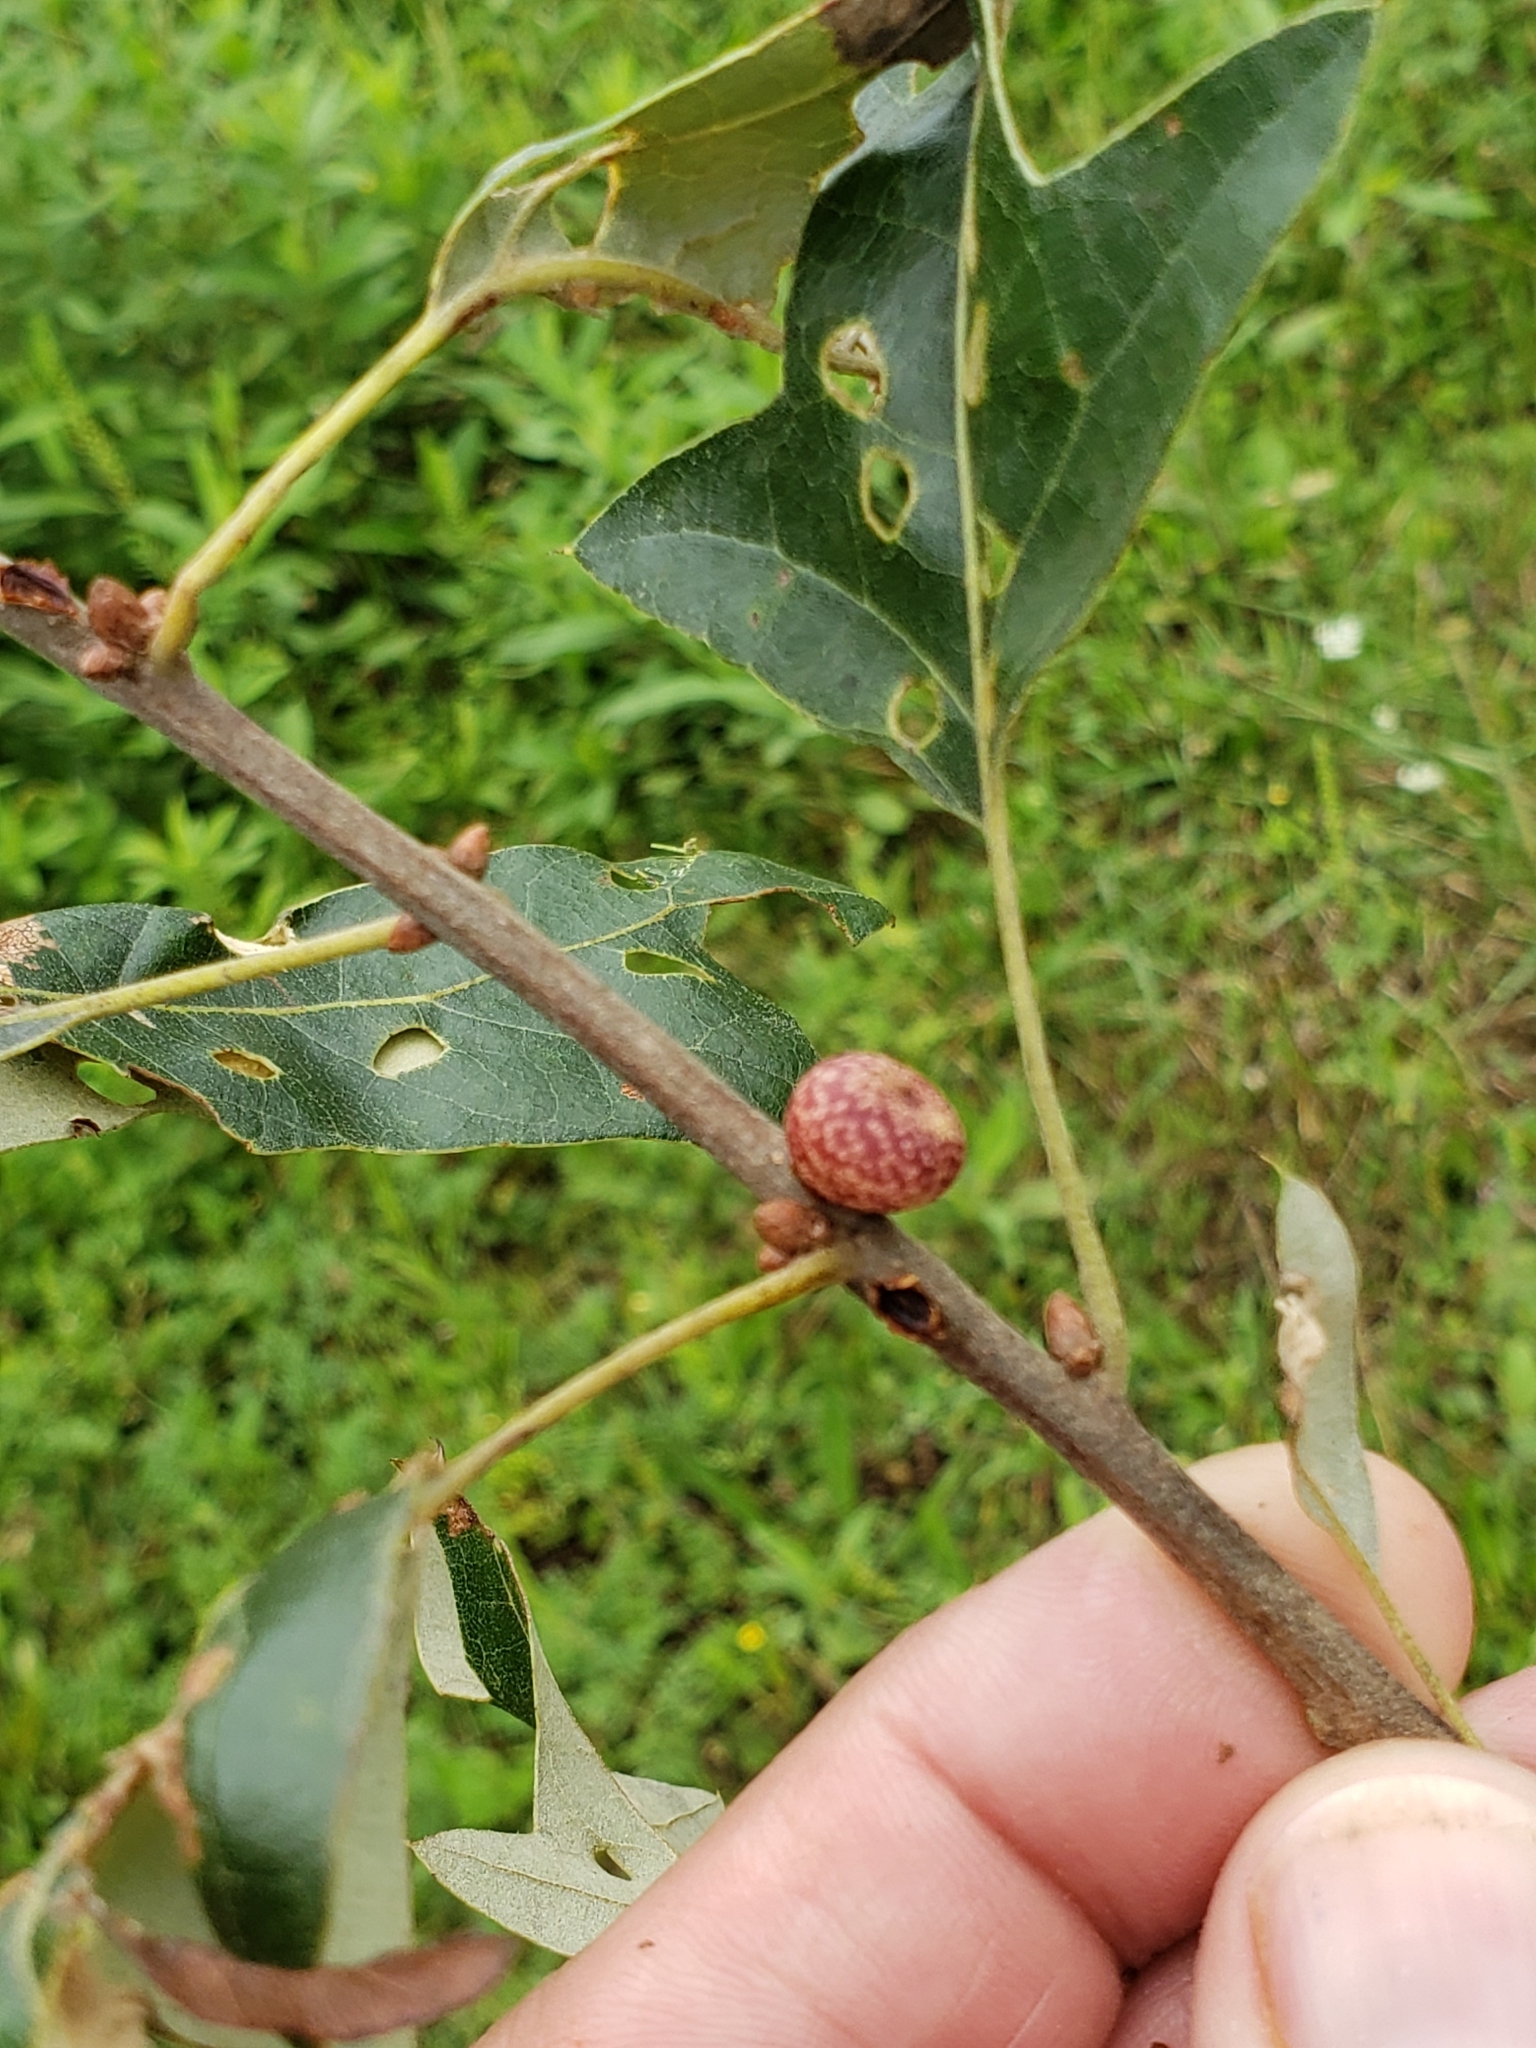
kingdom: Animalia
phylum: Arthropoda
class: Insecta
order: Hymenoptera
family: Cynipidae
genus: Kokkocynips
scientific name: Kokkocynips imbricariae
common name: Banded bullet gall wasp
